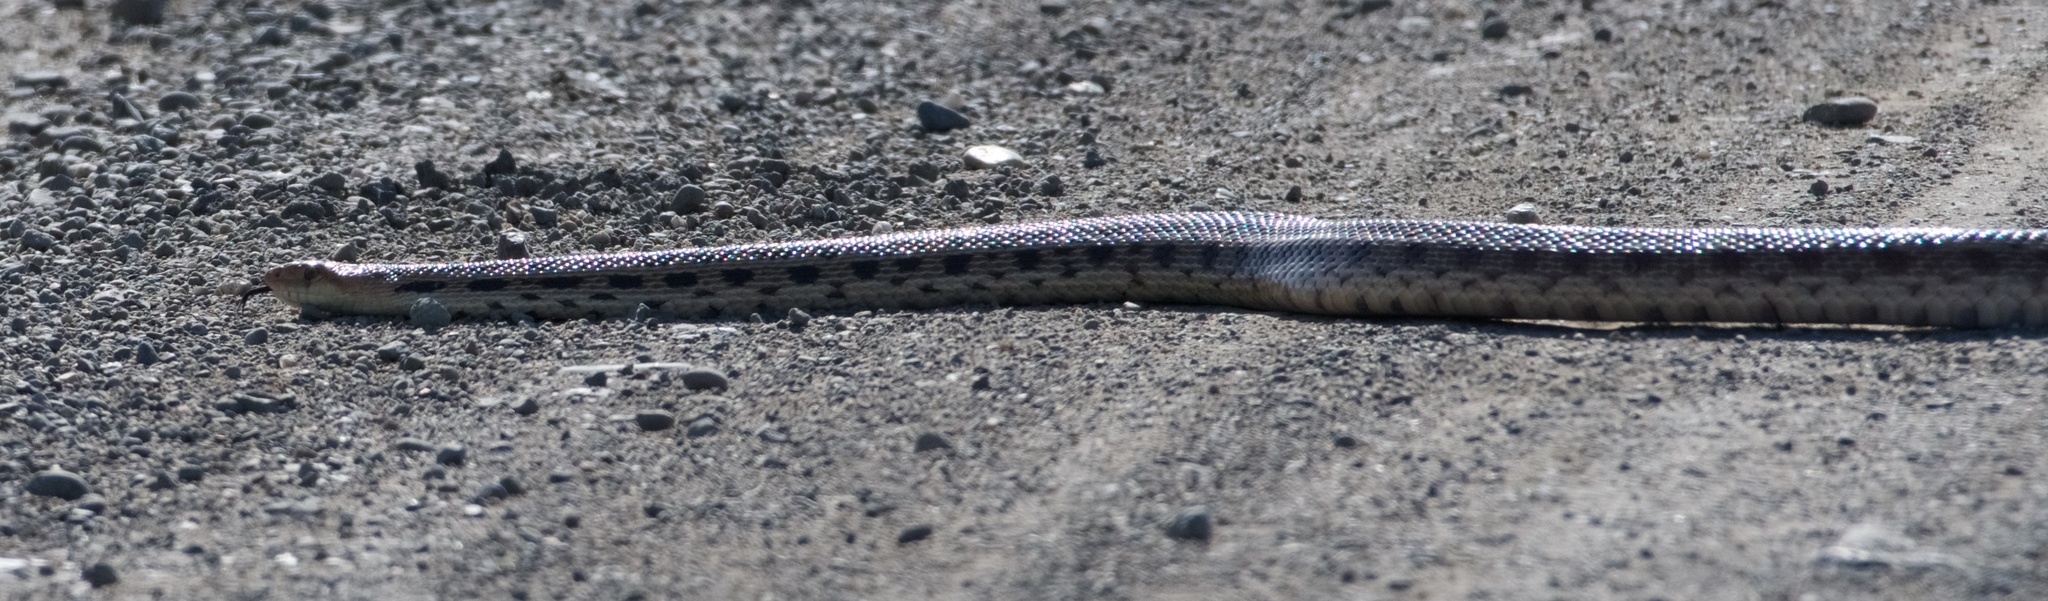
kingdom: Animalia
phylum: Chordata
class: Squamata
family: Colubridae
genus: Pituophis
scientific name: Pituophis catenifer
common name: Gopher snake
